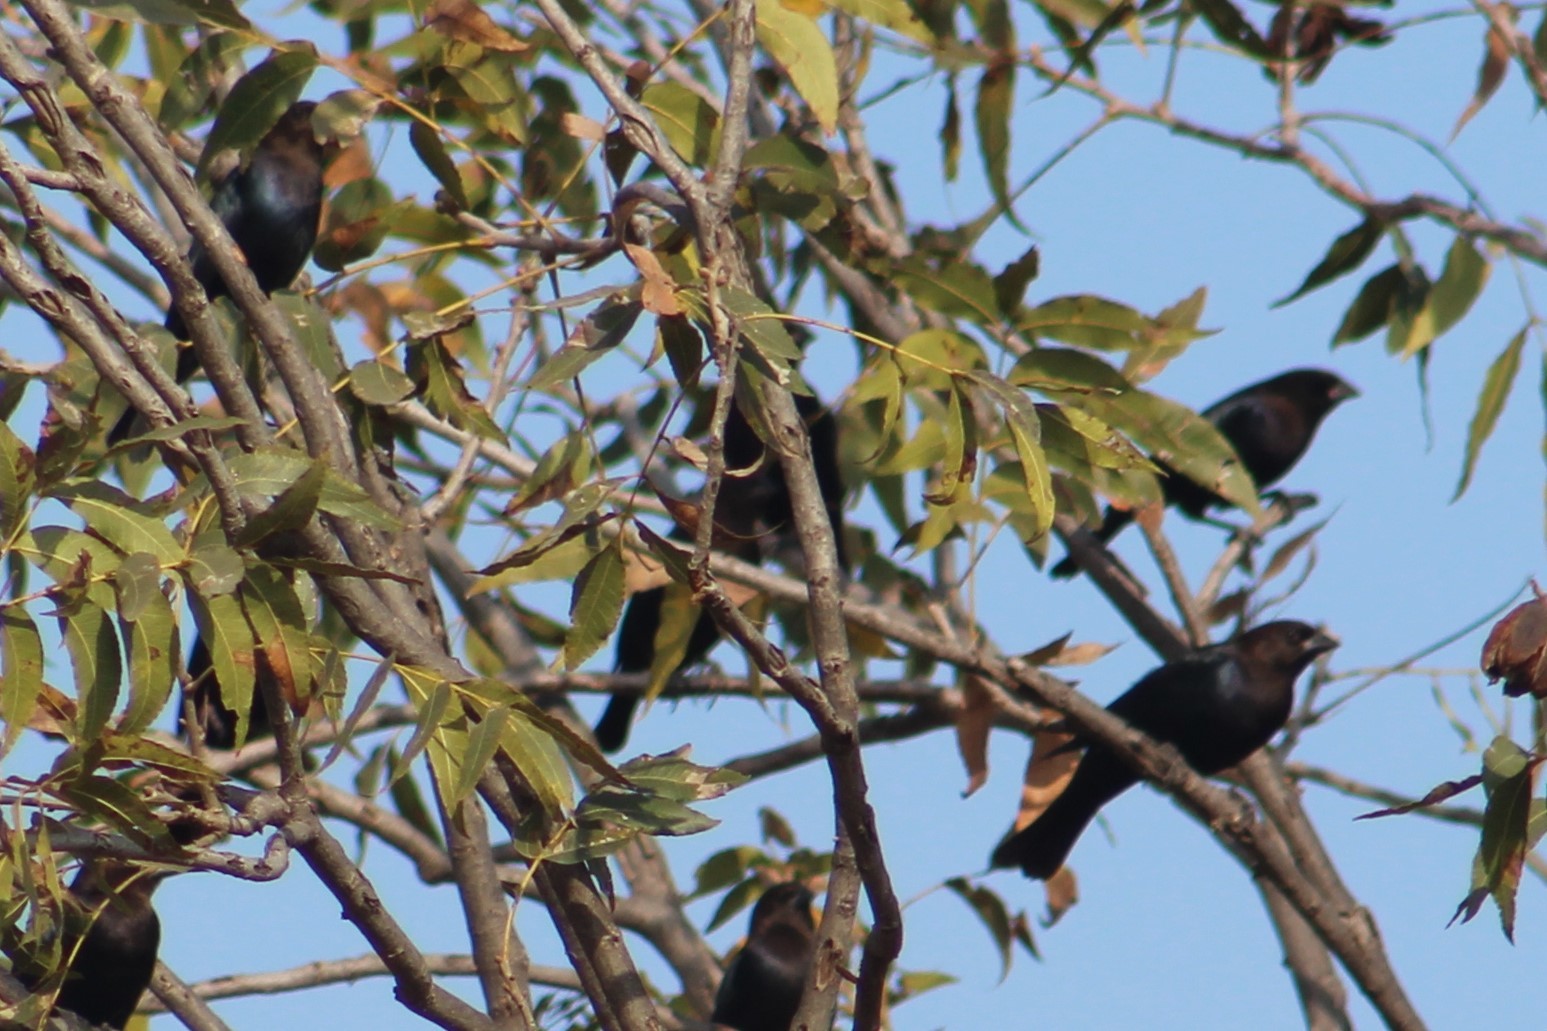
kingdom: Animalia
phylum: Chordata
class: Aves
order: Passeriformes
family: Icteridae
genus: Molothrus
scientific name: Molothrus ater
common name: Brown-headed cowbird
